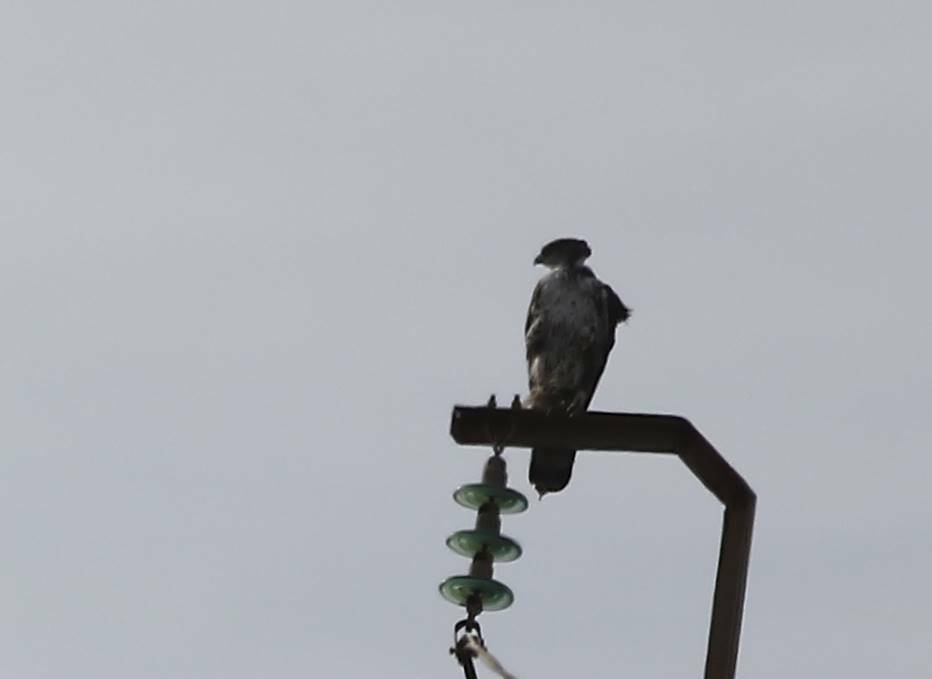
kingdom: Animalia
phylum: Chordata
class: Aves
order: Accipitriformes
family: Accipitridae
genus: Aquila
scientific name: Aquila fasciata
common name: Bonelli's eagle
